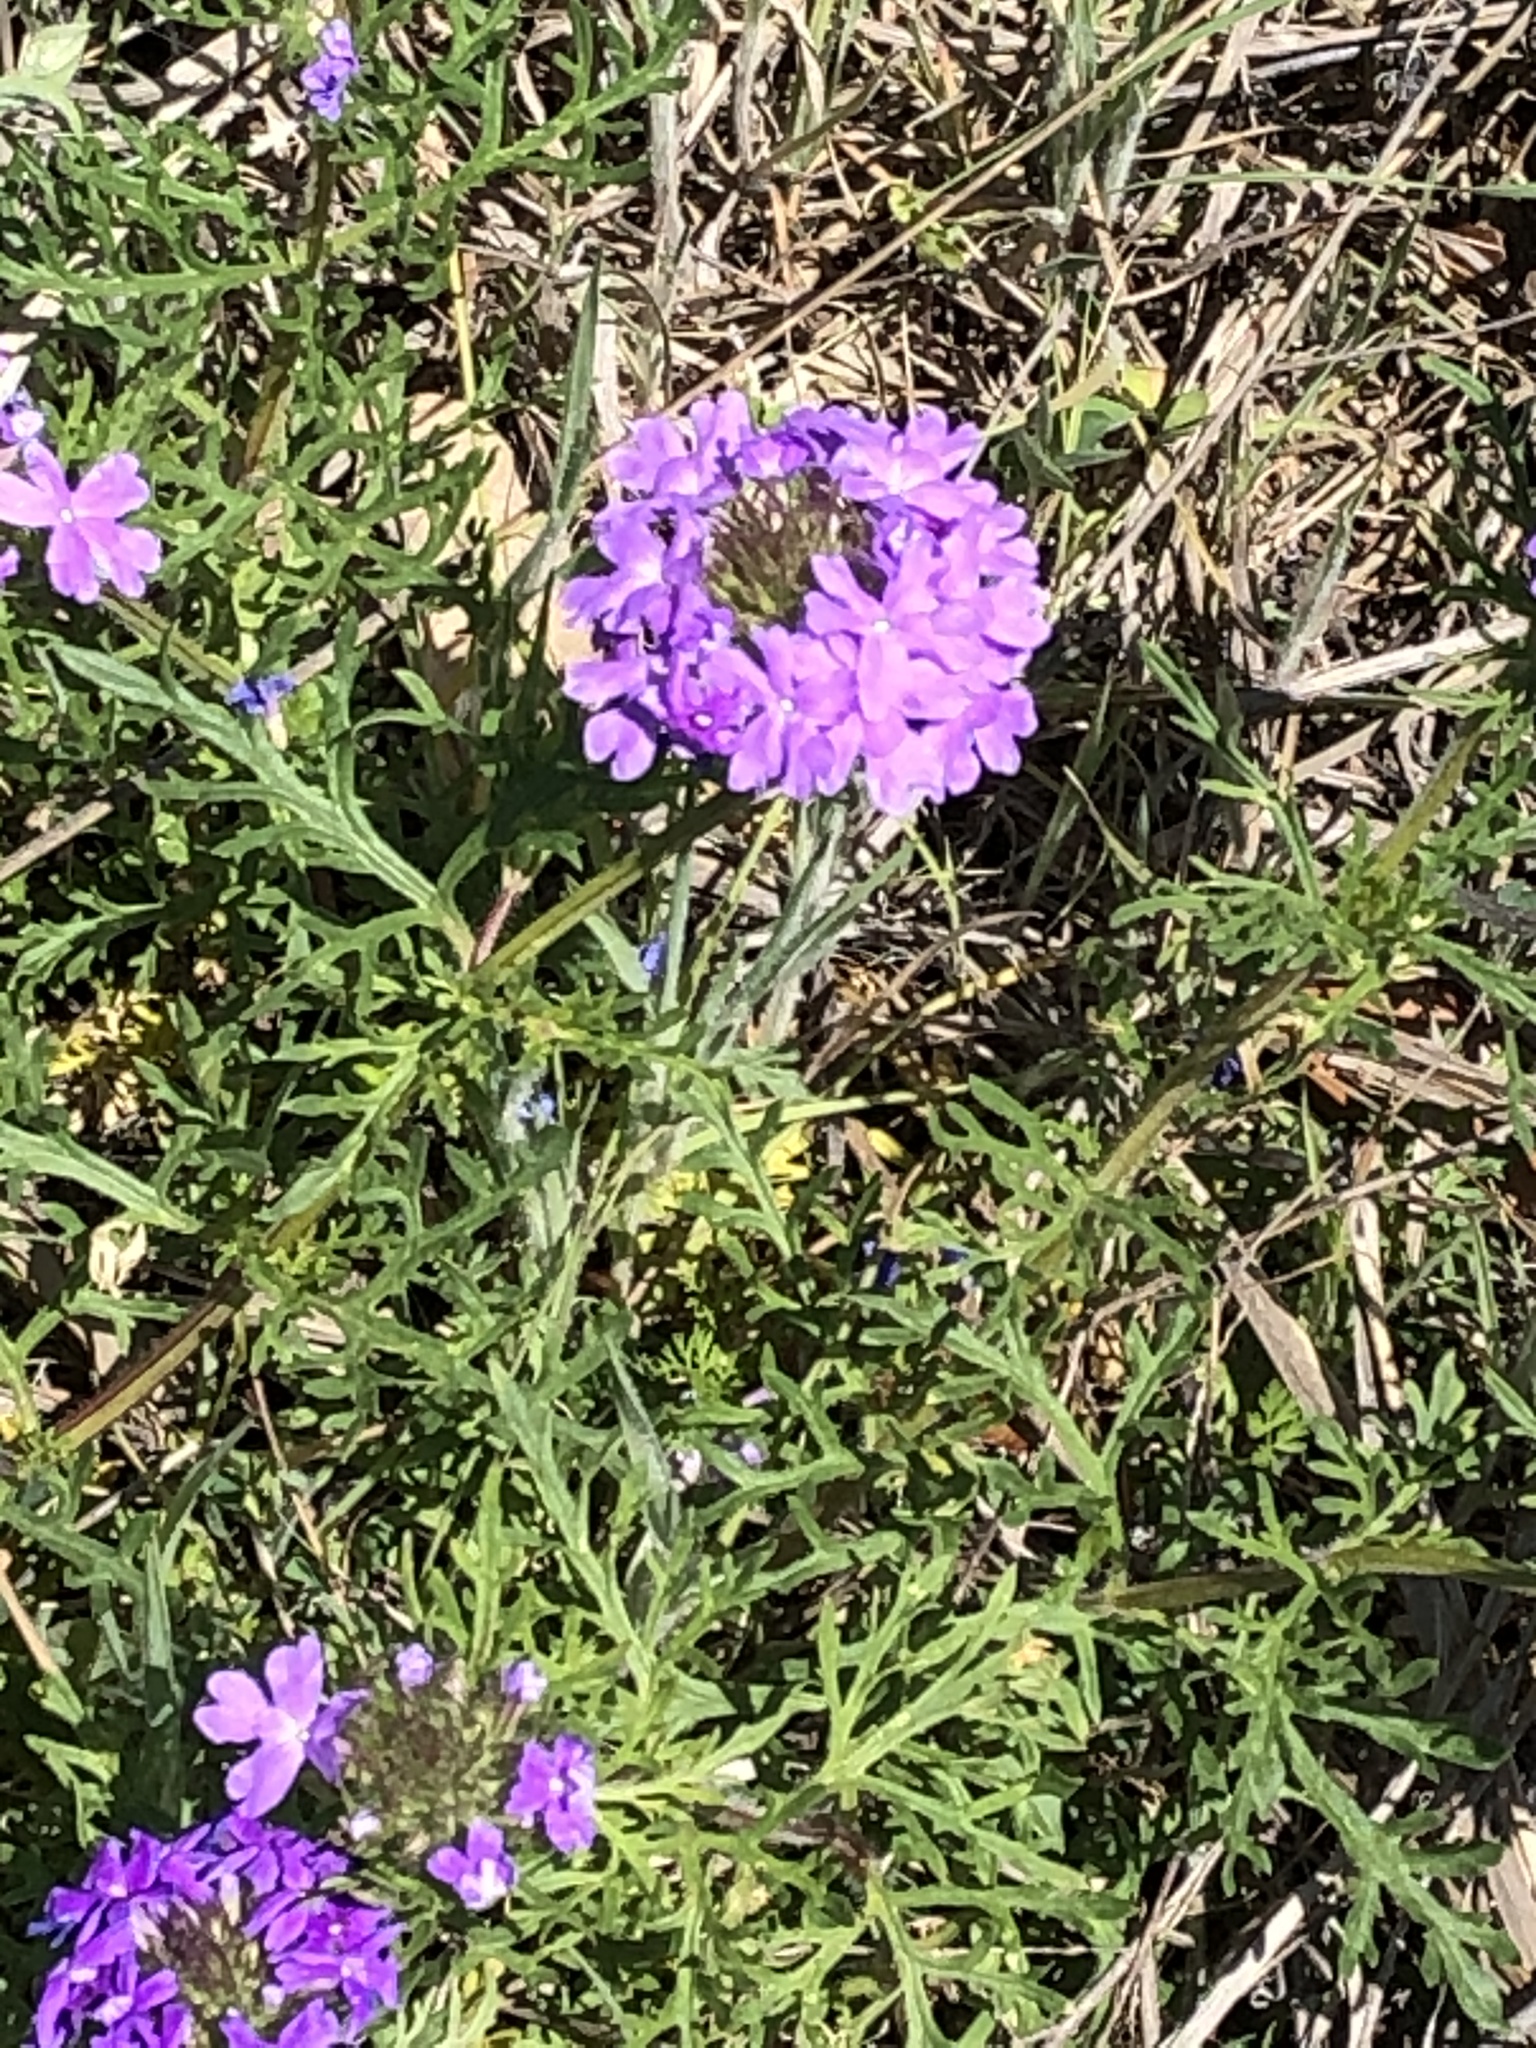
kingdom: Plantae
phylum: Tracheophyta
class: Magnoliopsida
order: Lamiales
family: Verbenaceae
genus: Verbena
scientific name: Verbena bipinnatifida
